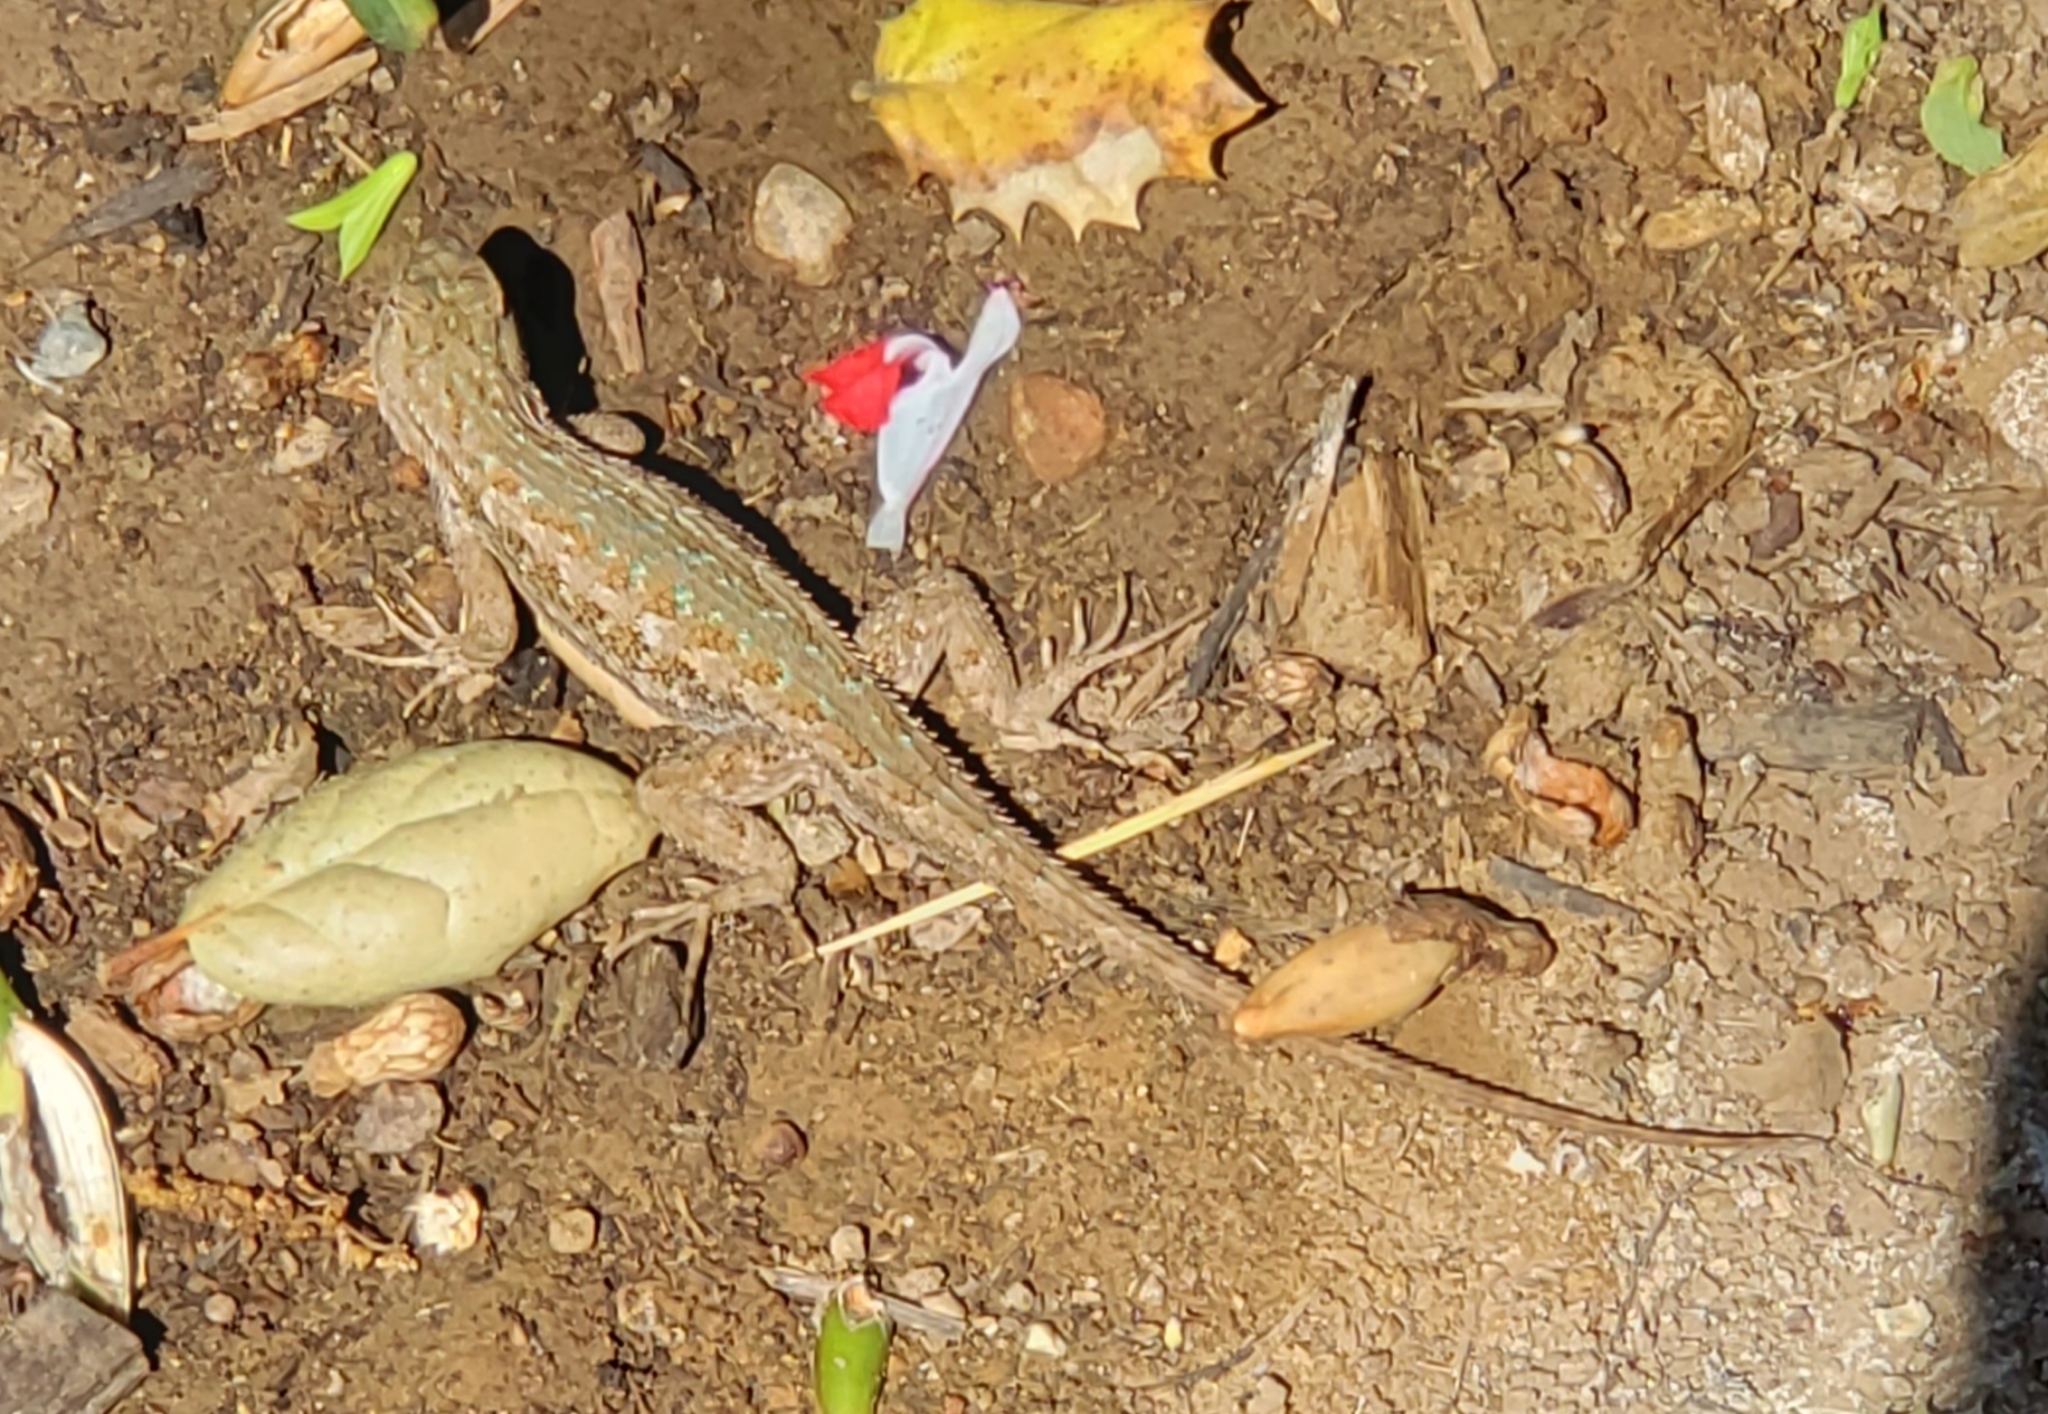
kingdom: Animalia
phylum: Chordata
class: Squamata
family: Phrynosomatidae
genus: Sceloporus
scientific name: Sceloporus occidentalis
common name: Western fence lizard
